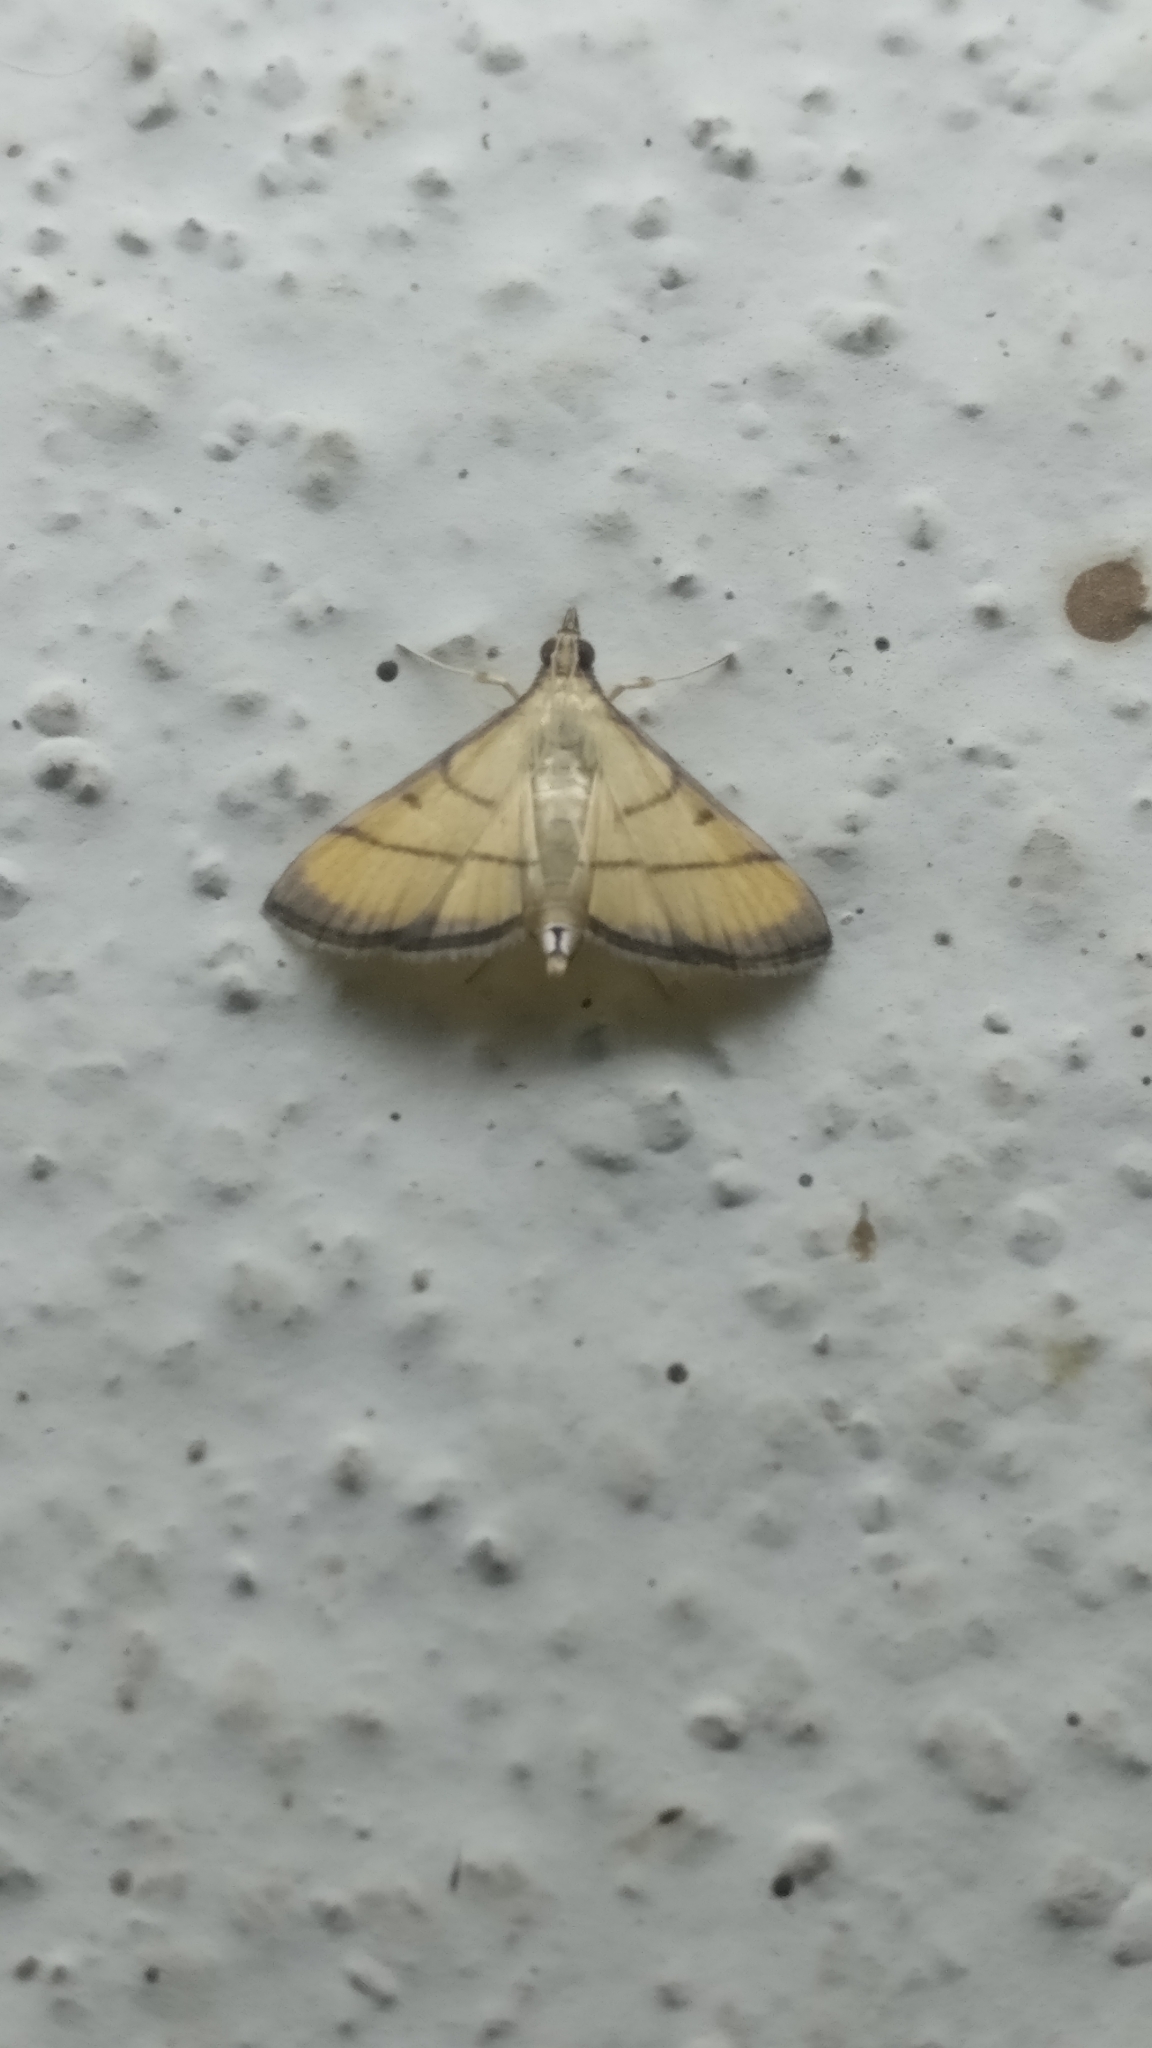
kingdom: Animalia
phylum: Arthropoda
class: Insecta
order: Lepidoptera
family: Crambidae
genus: Cnaphalocrocis
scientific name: Cnaphalocrocis medinalis
